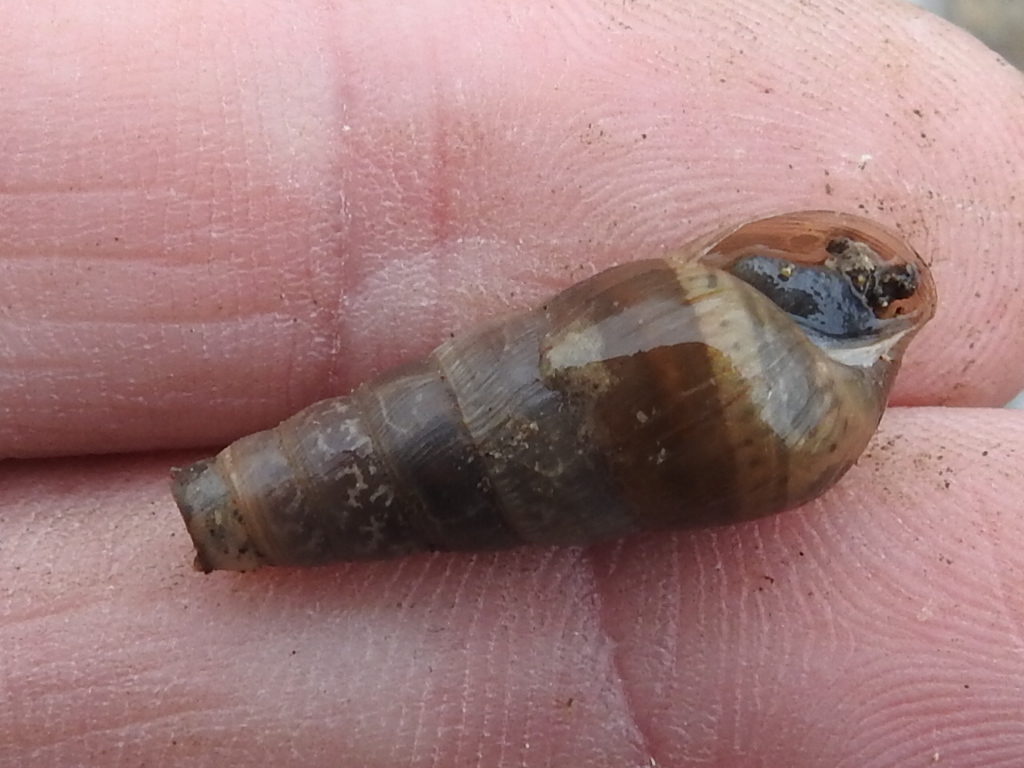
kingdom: Animalia
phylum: Mollusca
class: Gastropoda
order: Stylommatophora
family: Achatinidae
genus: Rumina
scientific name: Rumina decollata
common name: Decollate snail
